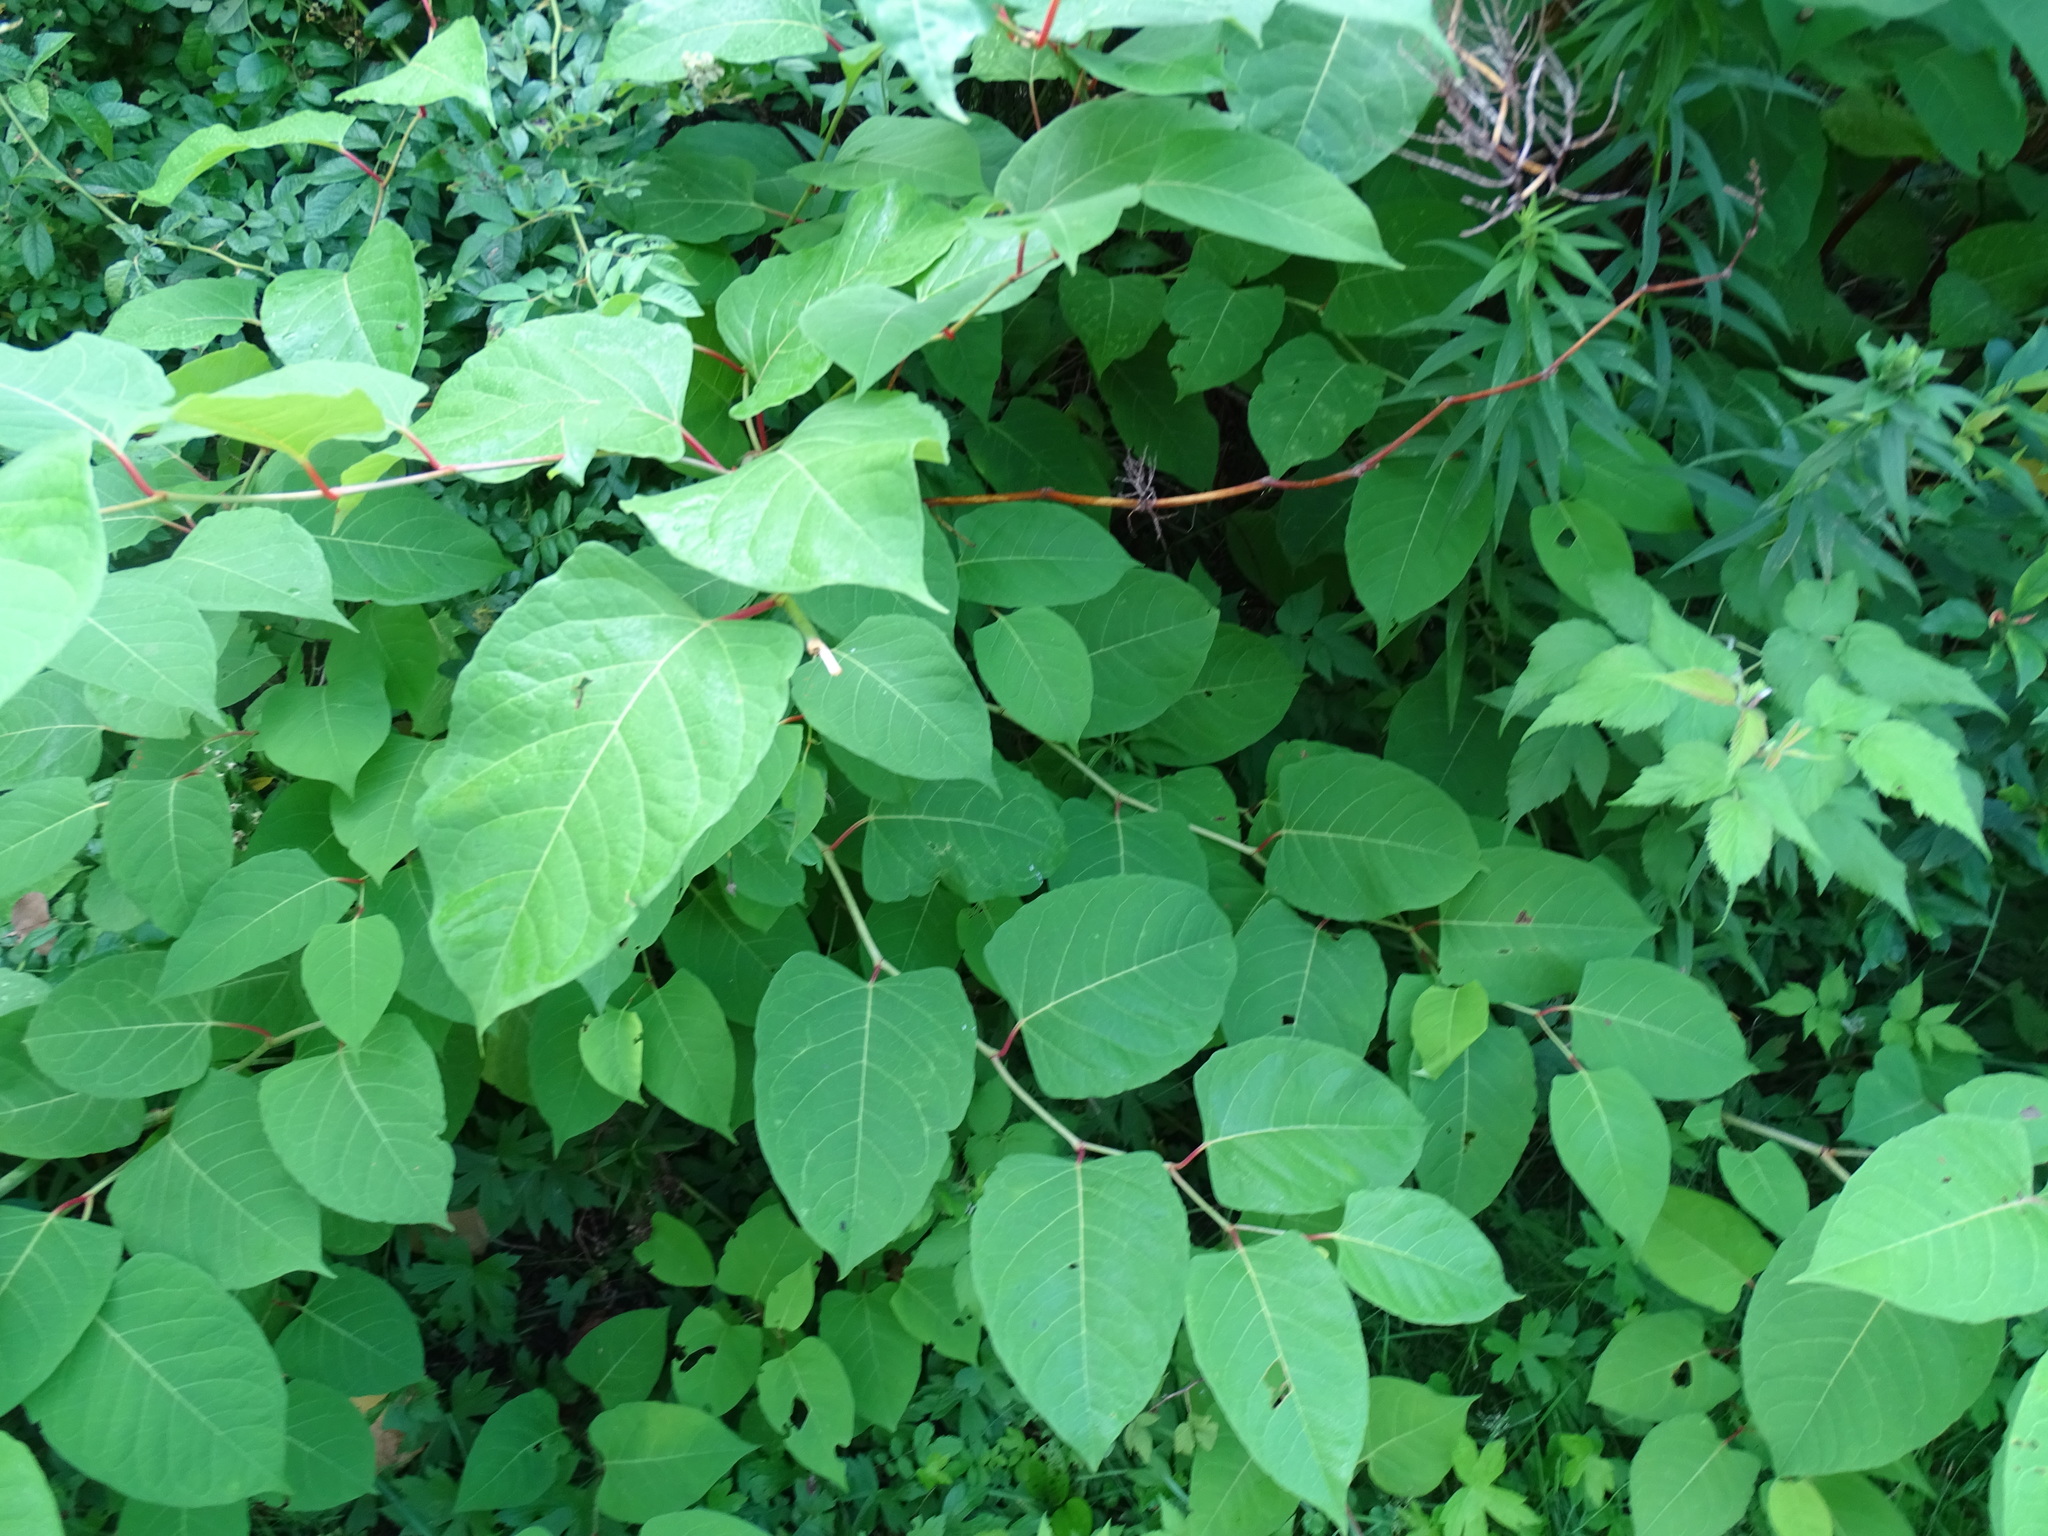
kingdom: Plantae
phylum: Tracheophyta
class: Magnoliopsida
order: Caryophyllales
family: Polygonaceae
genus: Reynoutria
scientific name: Reynoutria japonica
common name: Japanese knotweed
